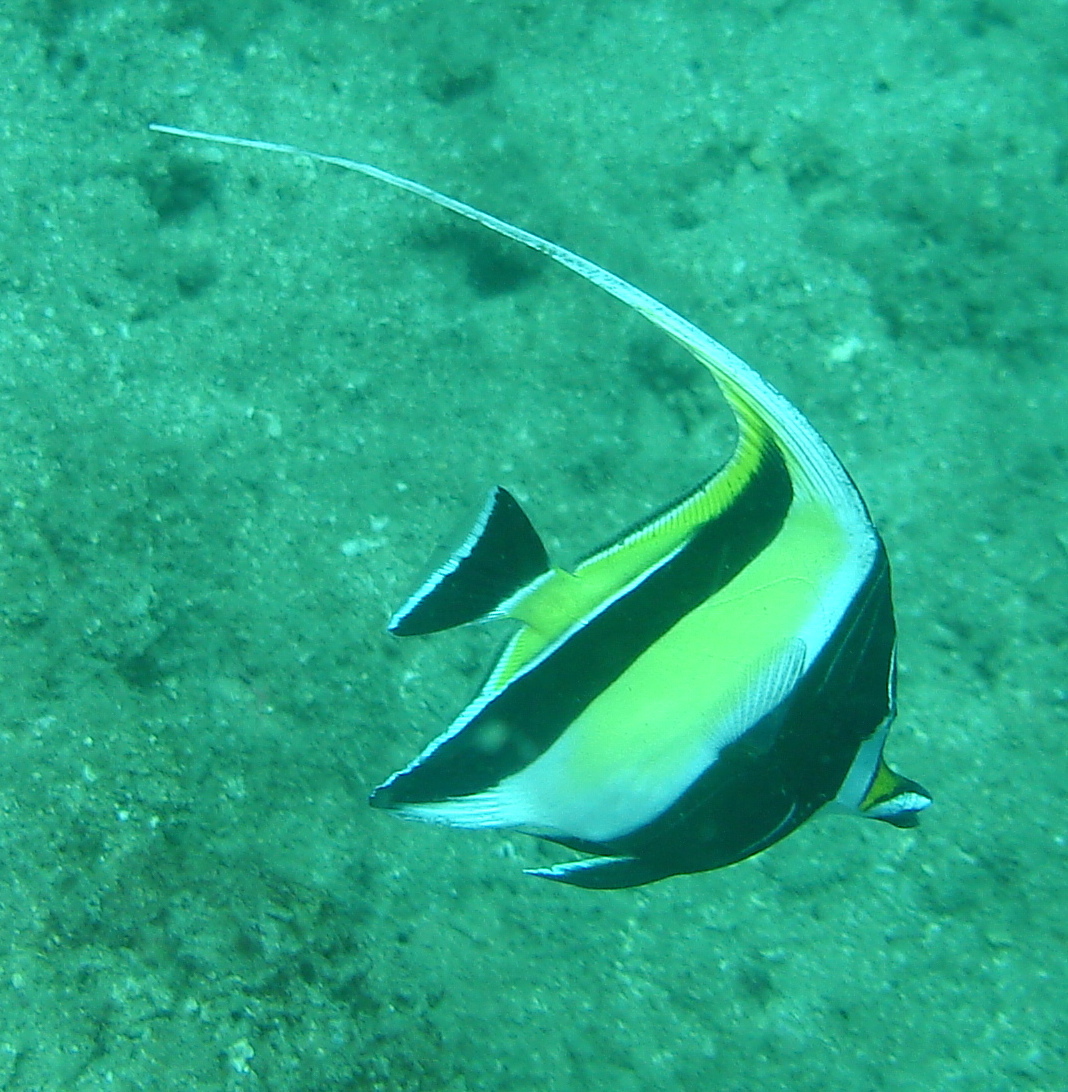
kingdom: Animalia
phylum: Chordata
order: Perciformes
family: Zanclidae
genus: Zanclus
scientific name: Zanclus cornutus
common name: Moorish idol
